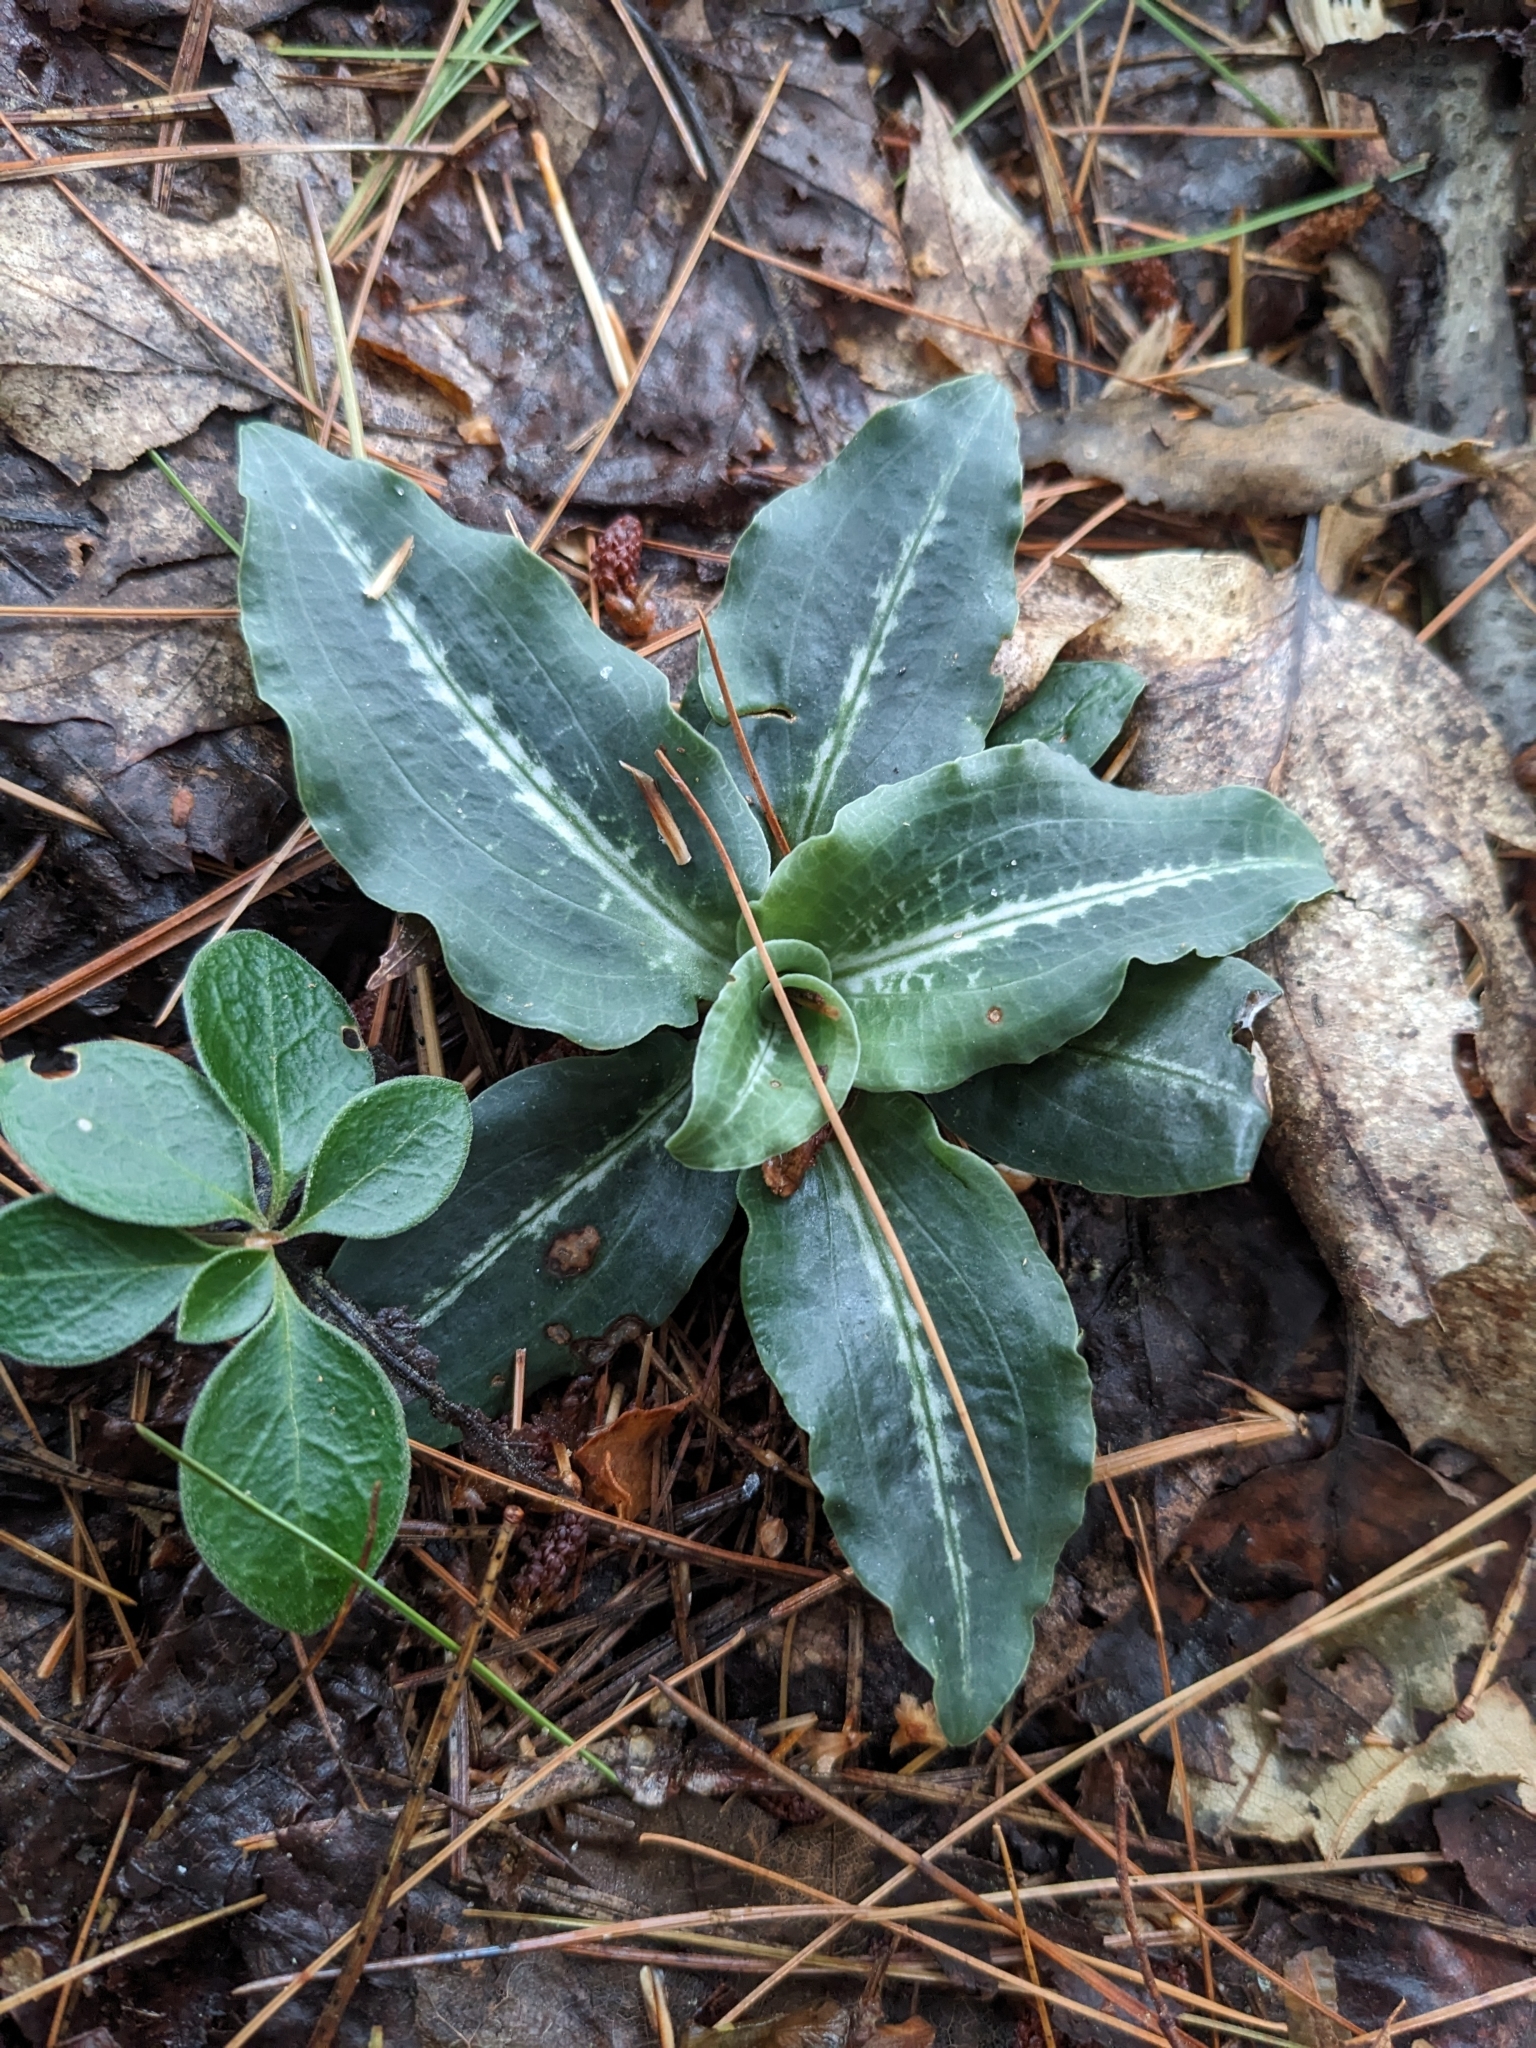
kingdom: Plantae
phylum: Tracheophyta
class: Liliopsida
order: Asparagales
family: Orchidaceae
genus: Goodyera
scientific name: Goodyera oblongifolia
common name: Giant rattlesnake-plantain
